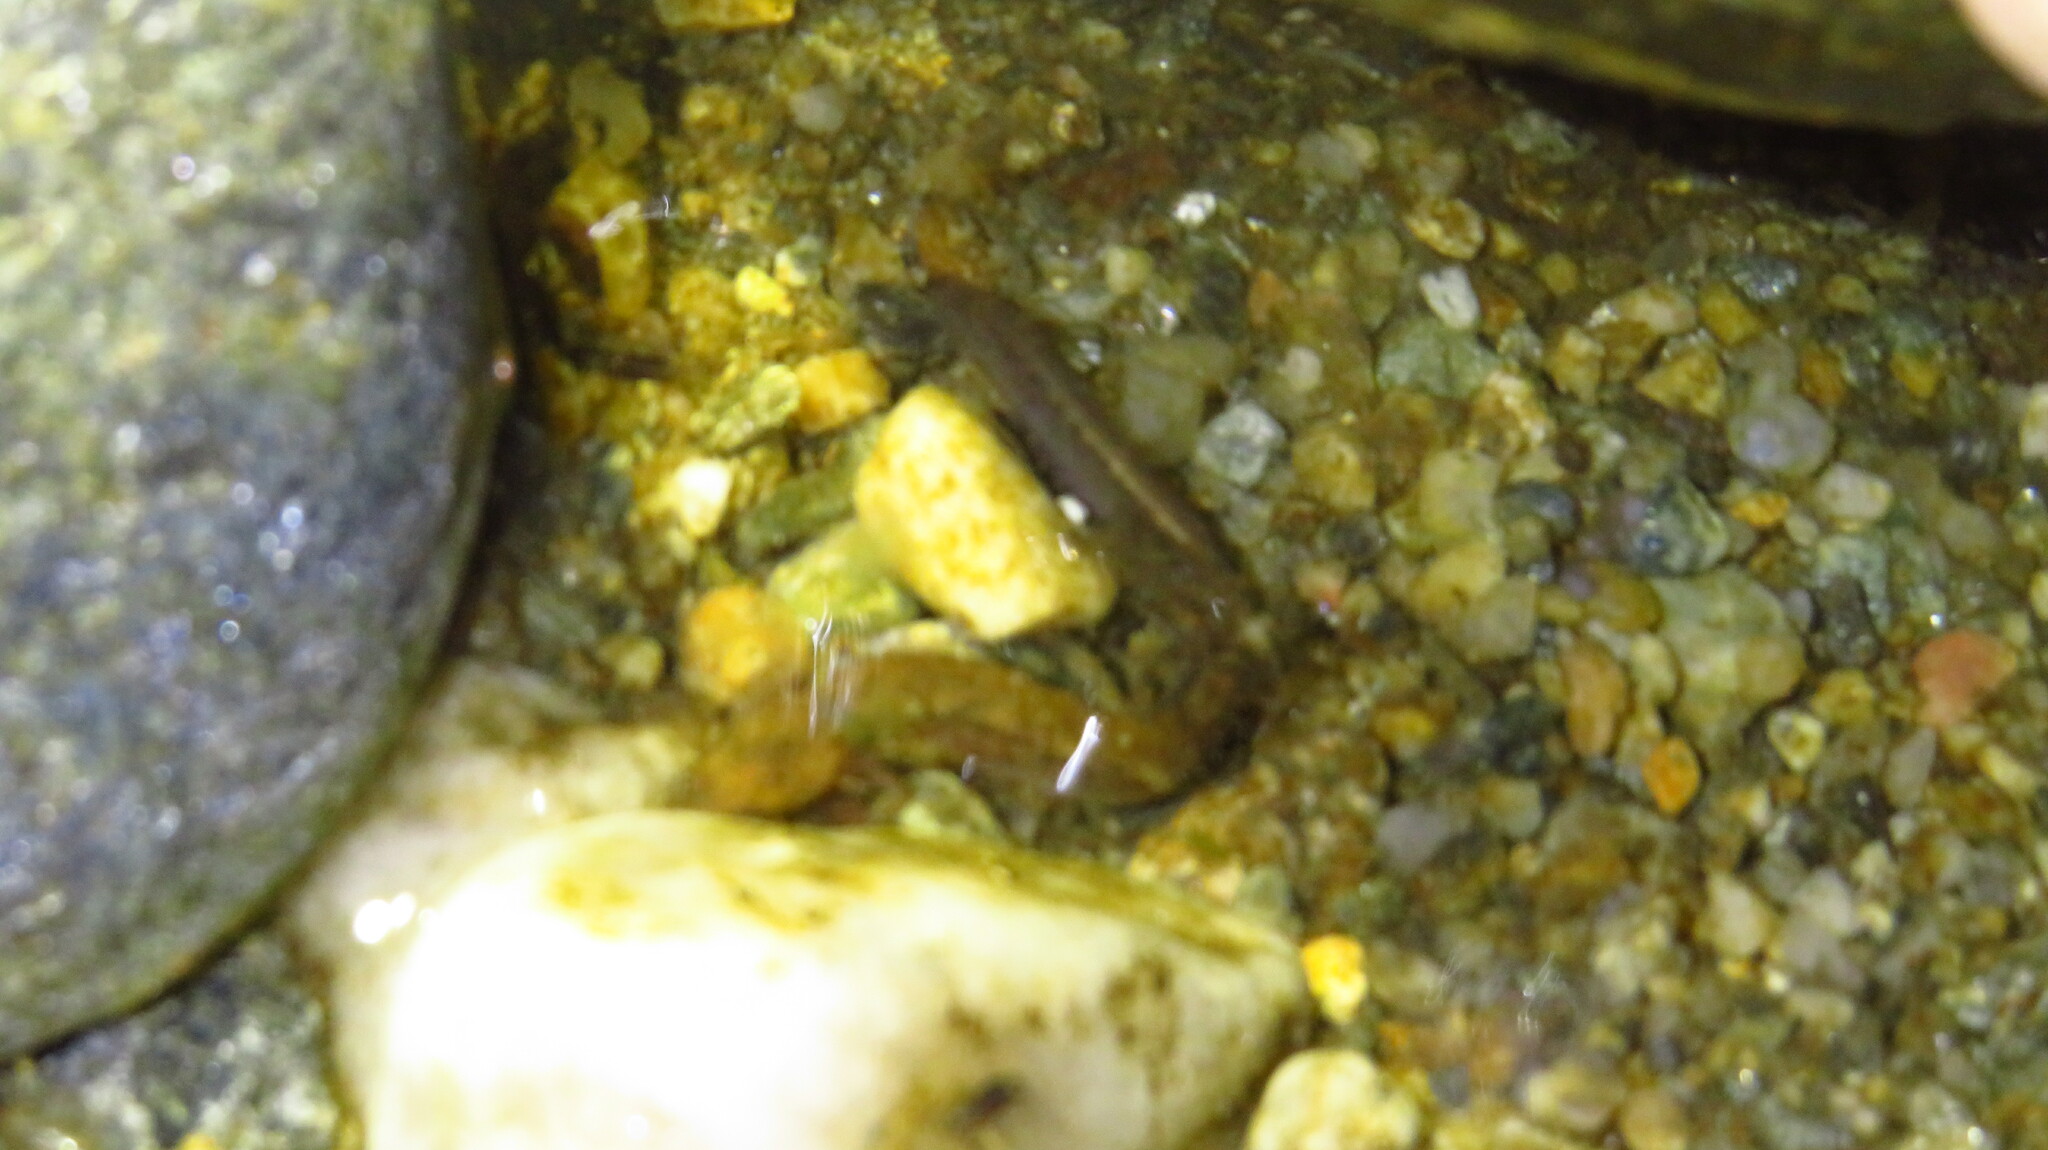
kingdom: Animalia
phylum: Chordata
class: Amphibia
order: Caudata
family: Plethodontidae
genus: Eurycea
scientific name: Eurycea bislineata
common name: Northern two-lined salamander
